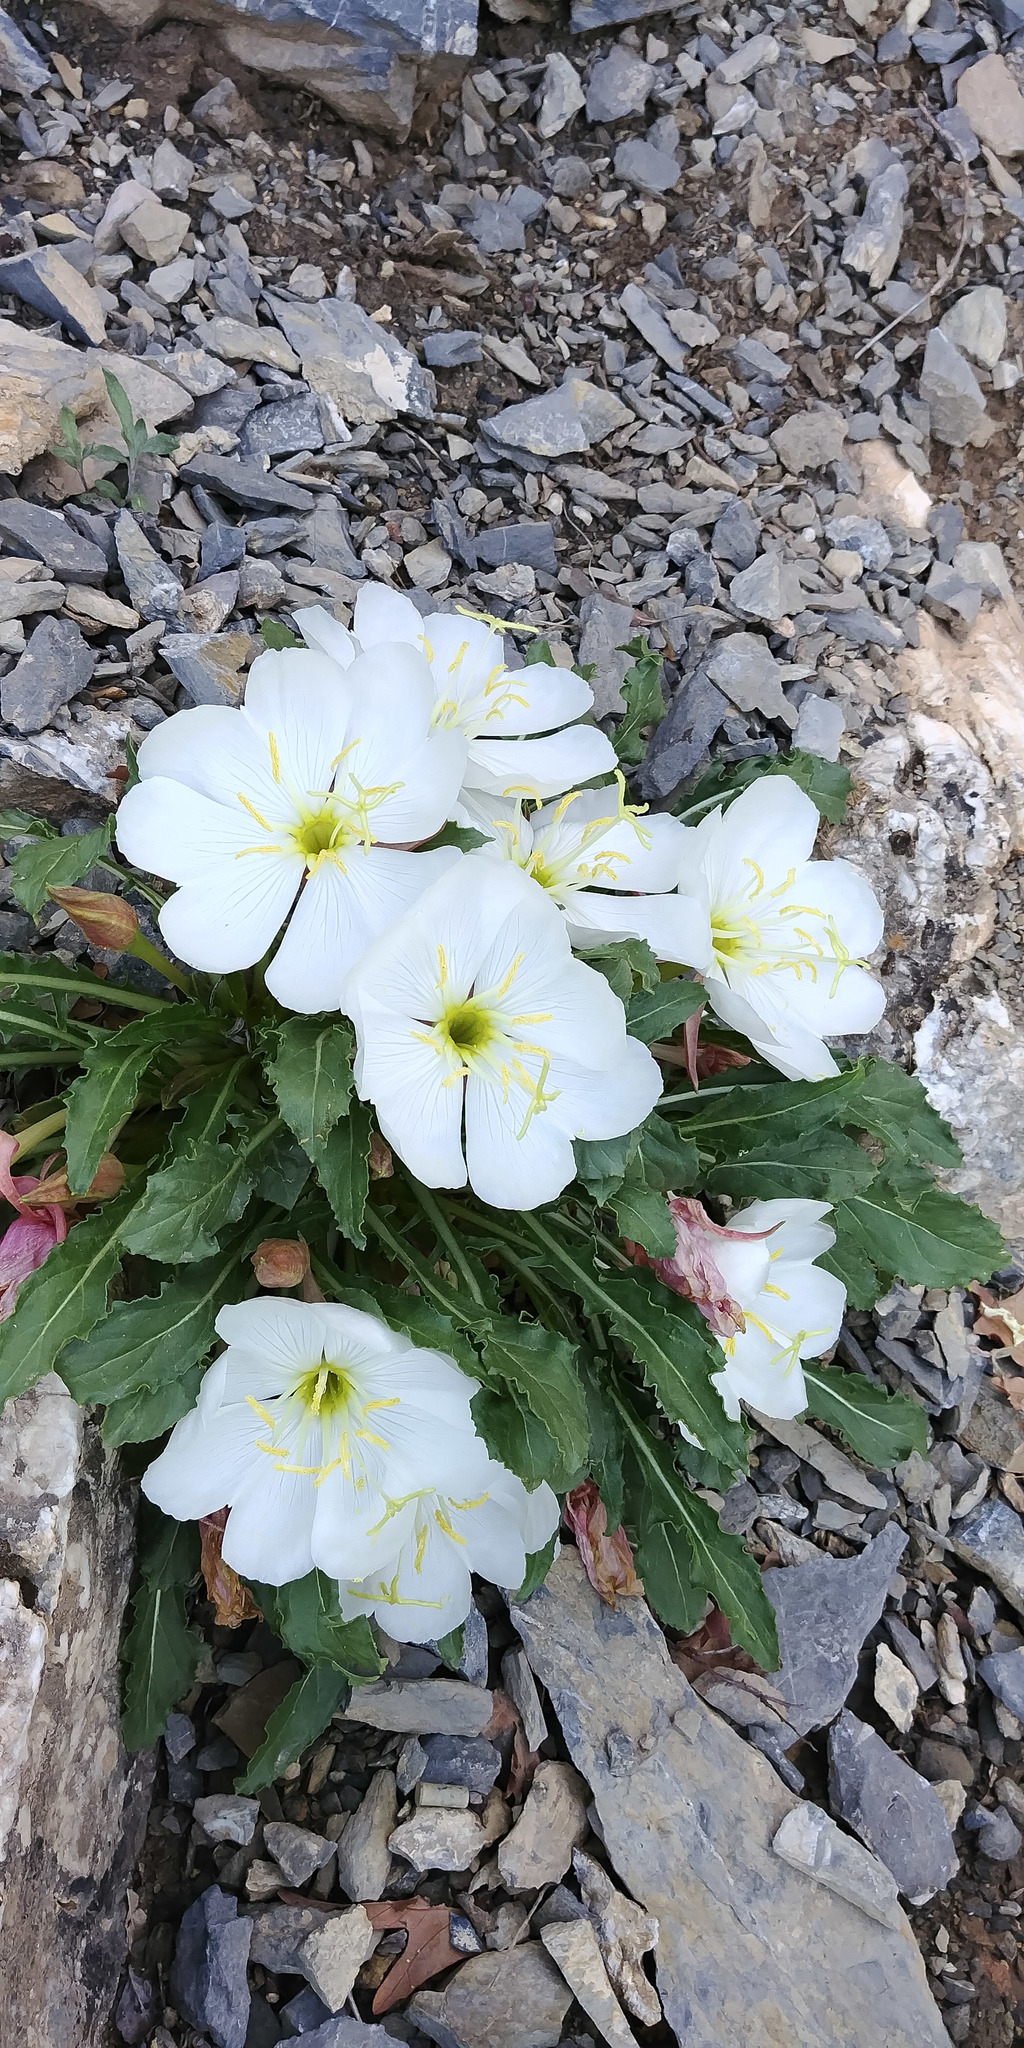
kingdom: Plantae
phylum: Tracheophyta
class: Magnoliopsida
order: Myrtales
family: Onagraceae
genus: Oenothera
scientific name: Oenothera cespitosa
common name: Tufted evening-primrose
